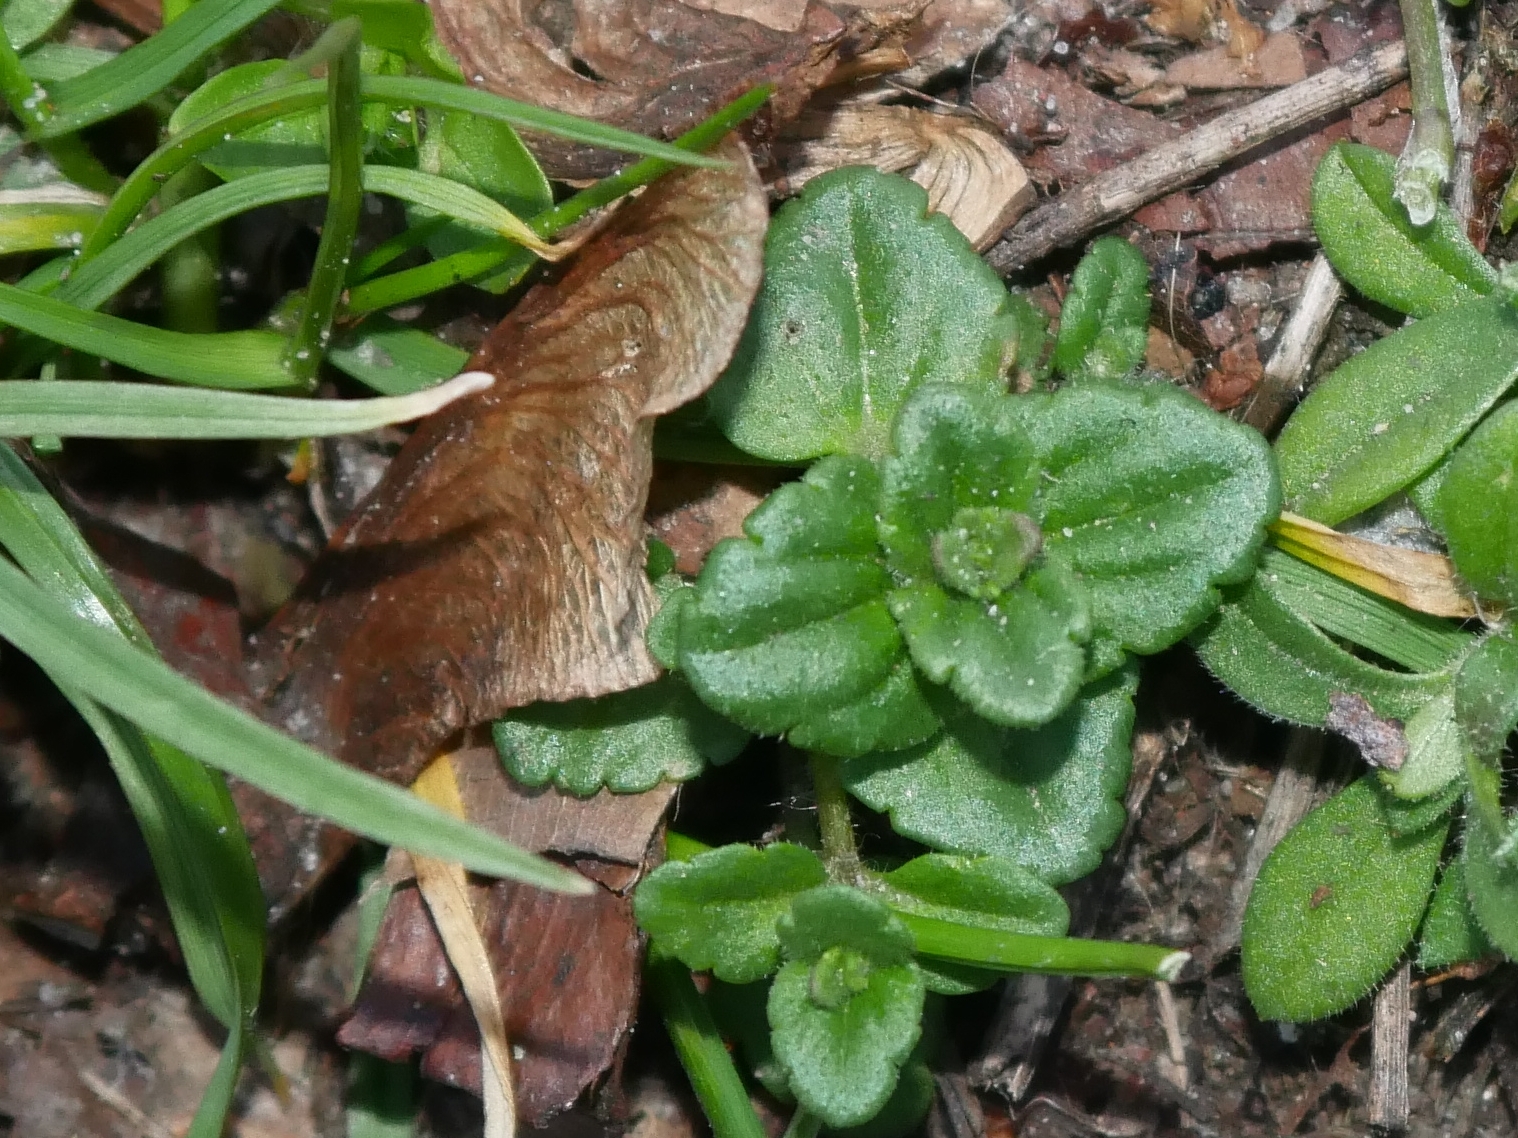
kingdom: Plantae
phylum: Tracheophyta
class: Magnoliopsida
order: Lamiales
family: Plantaginaceae
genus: Veronica
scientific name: Veronica arvensis
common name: Corn speedwell
